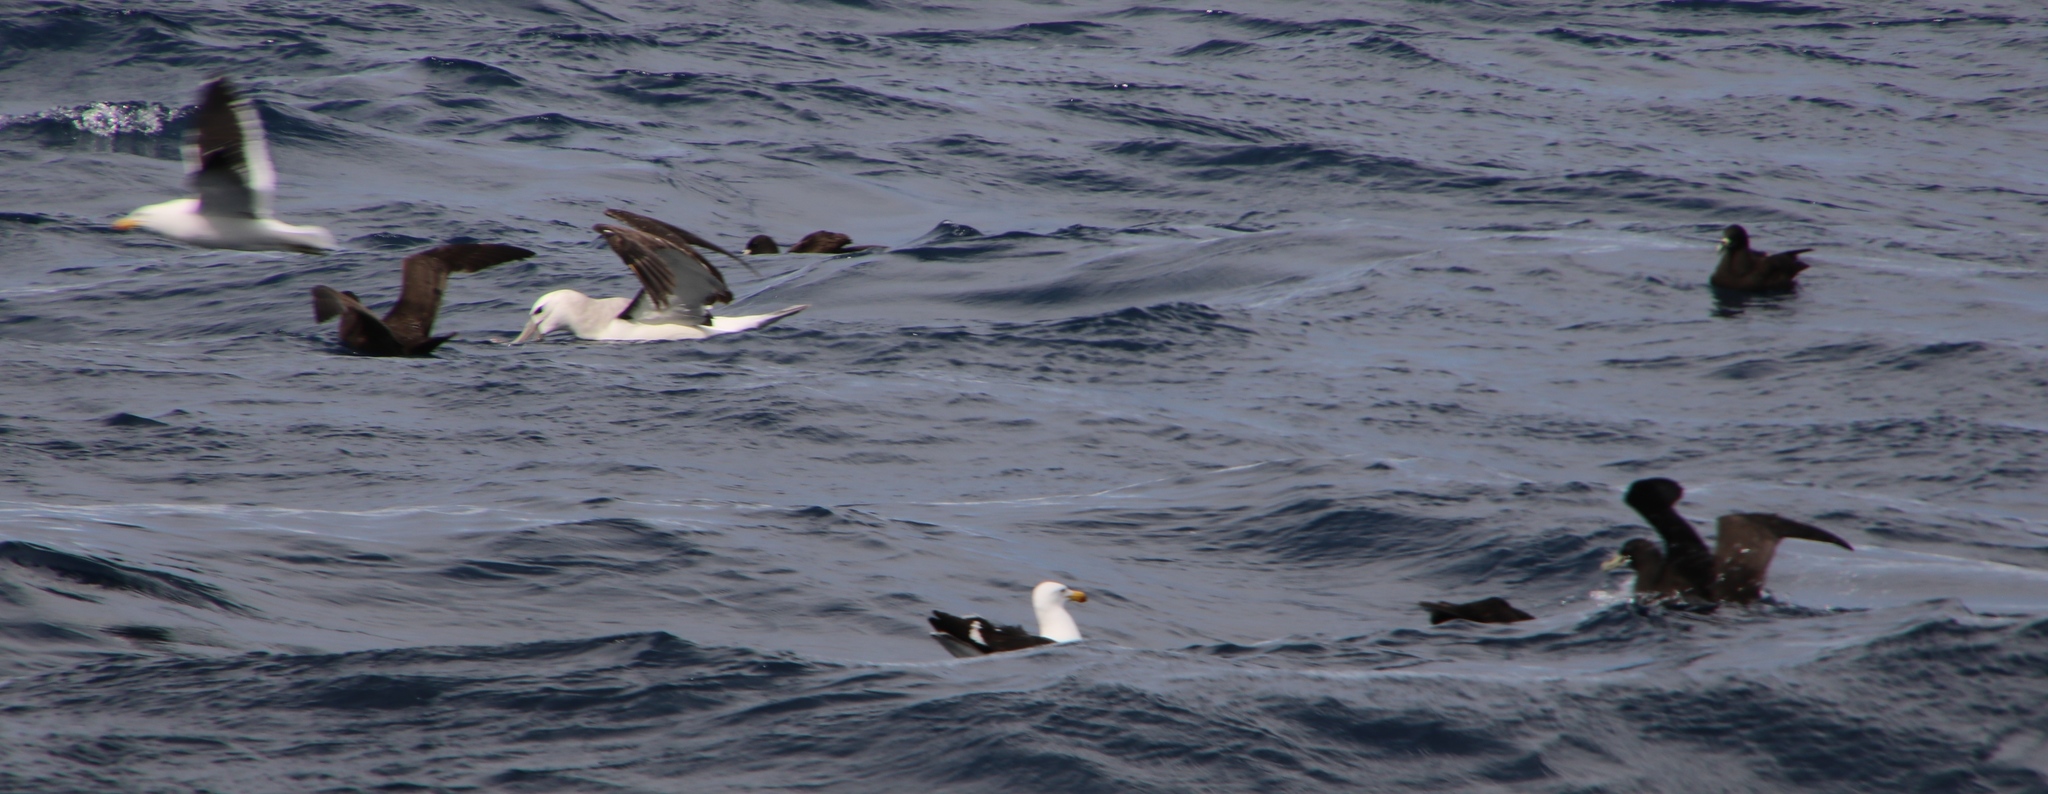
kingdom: Animalia
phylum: Chordata
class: Aves
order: Charadriiformes
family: Laridae
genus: Larus
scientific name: Larus dominicanus
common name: Kelp gull
